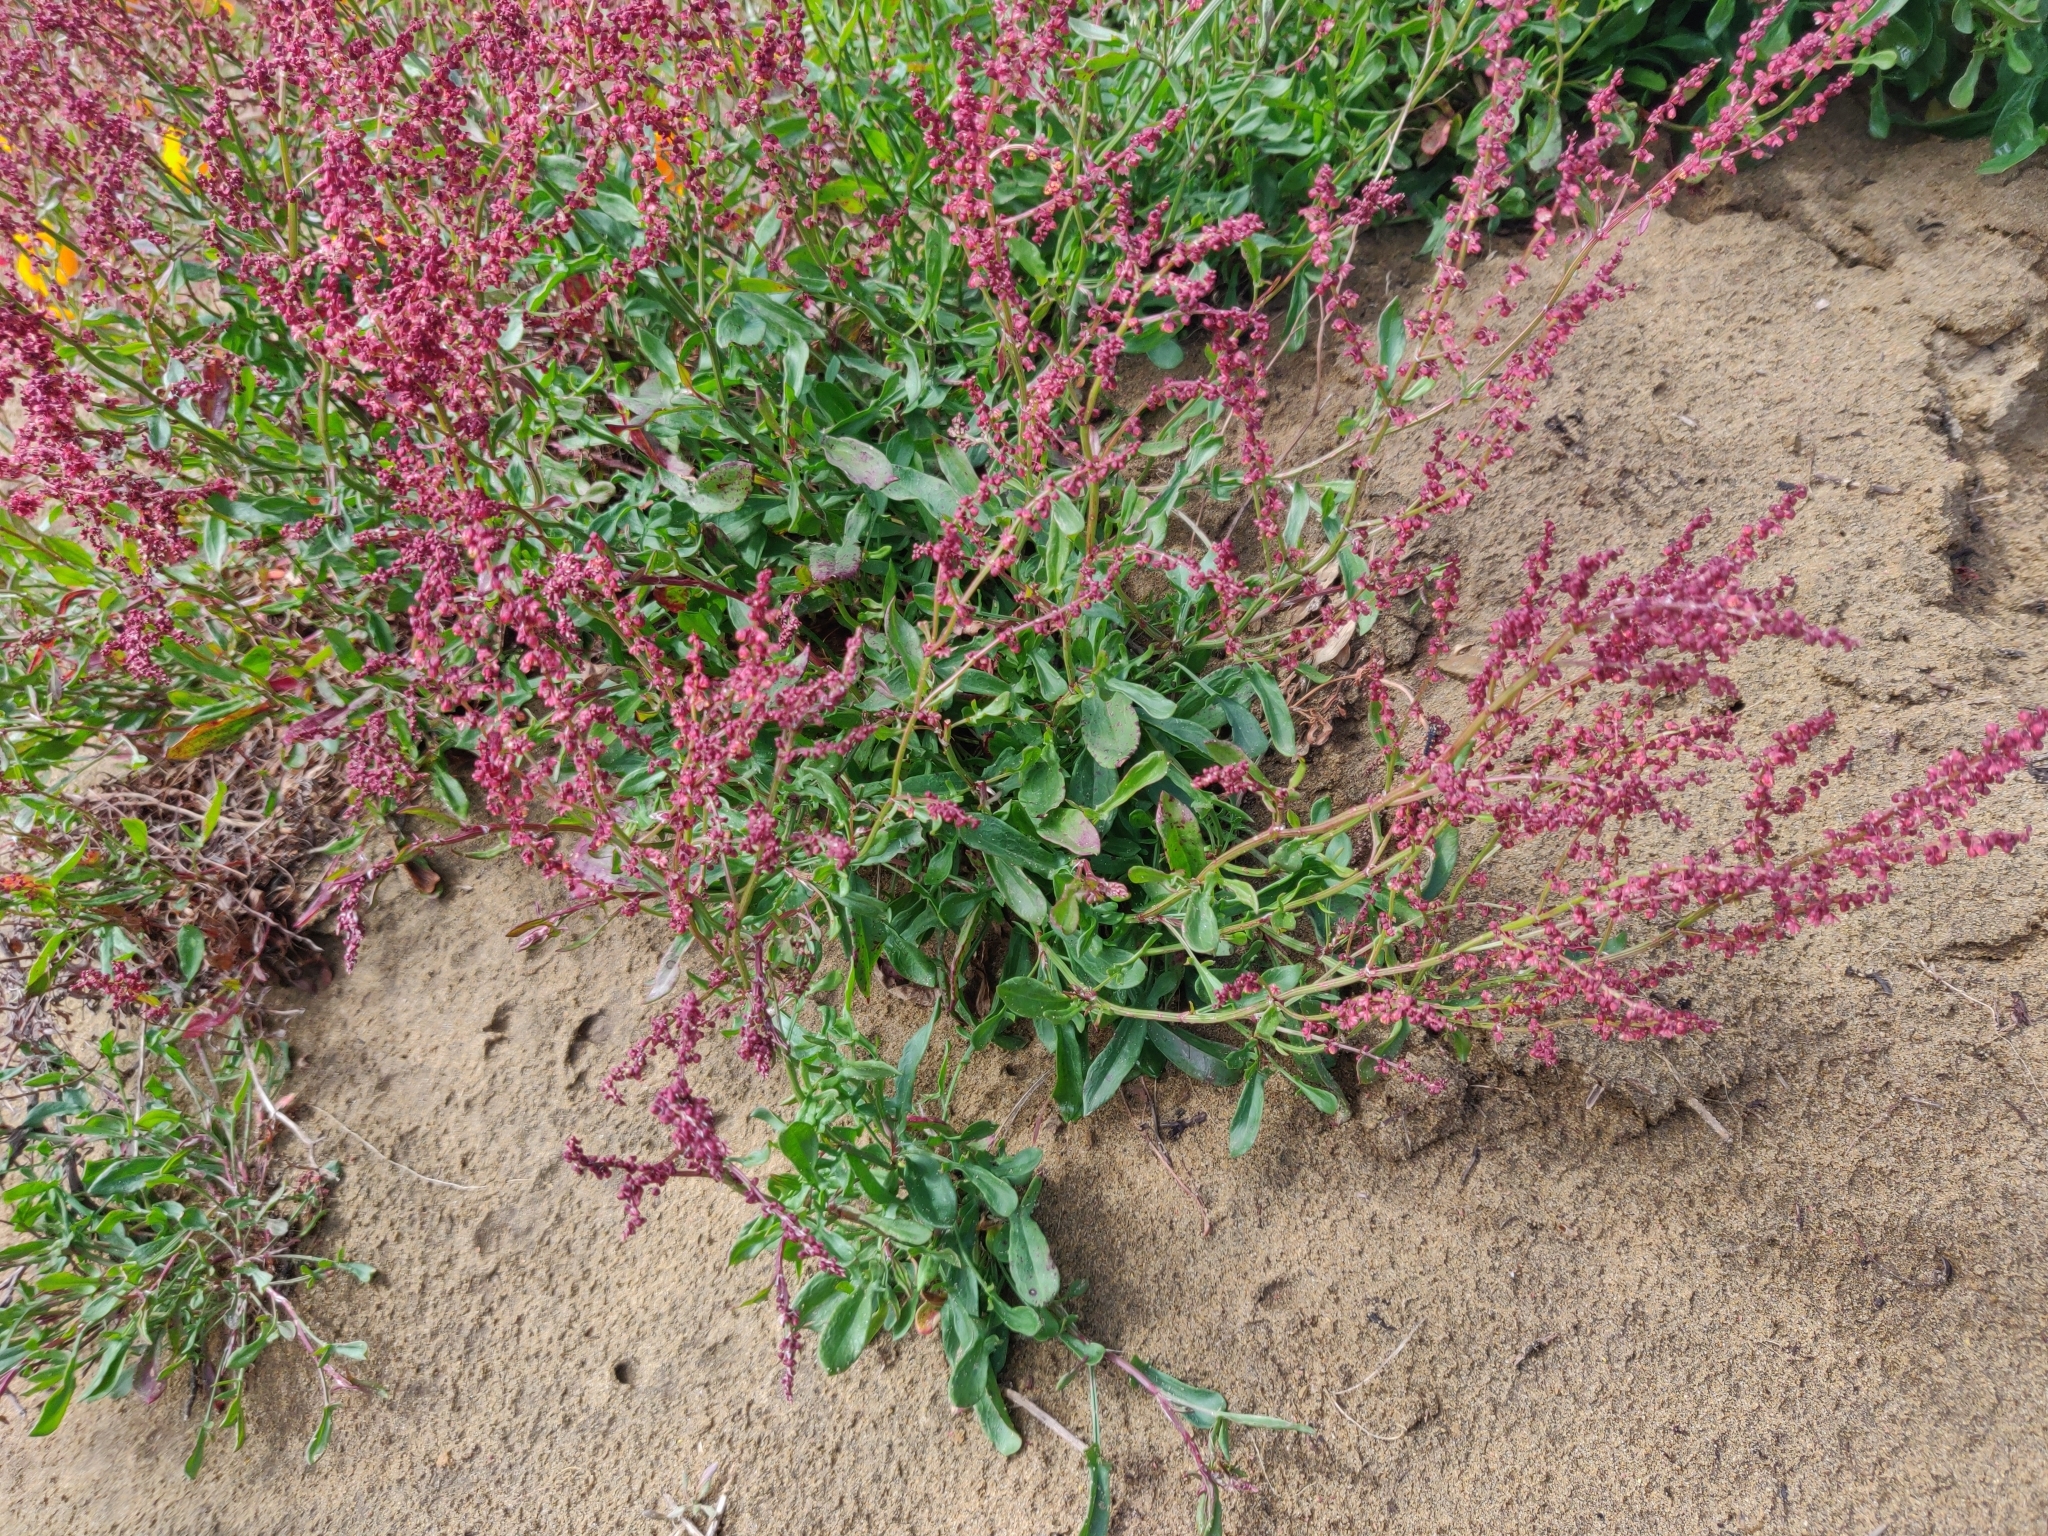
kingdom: Plantae
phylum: Tracheophyta
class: Magnoliopsida
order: Caryophyllales
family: Polygonaceae
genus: Rumex
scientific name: Rumex acetosella
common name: Common sheep sorrel
